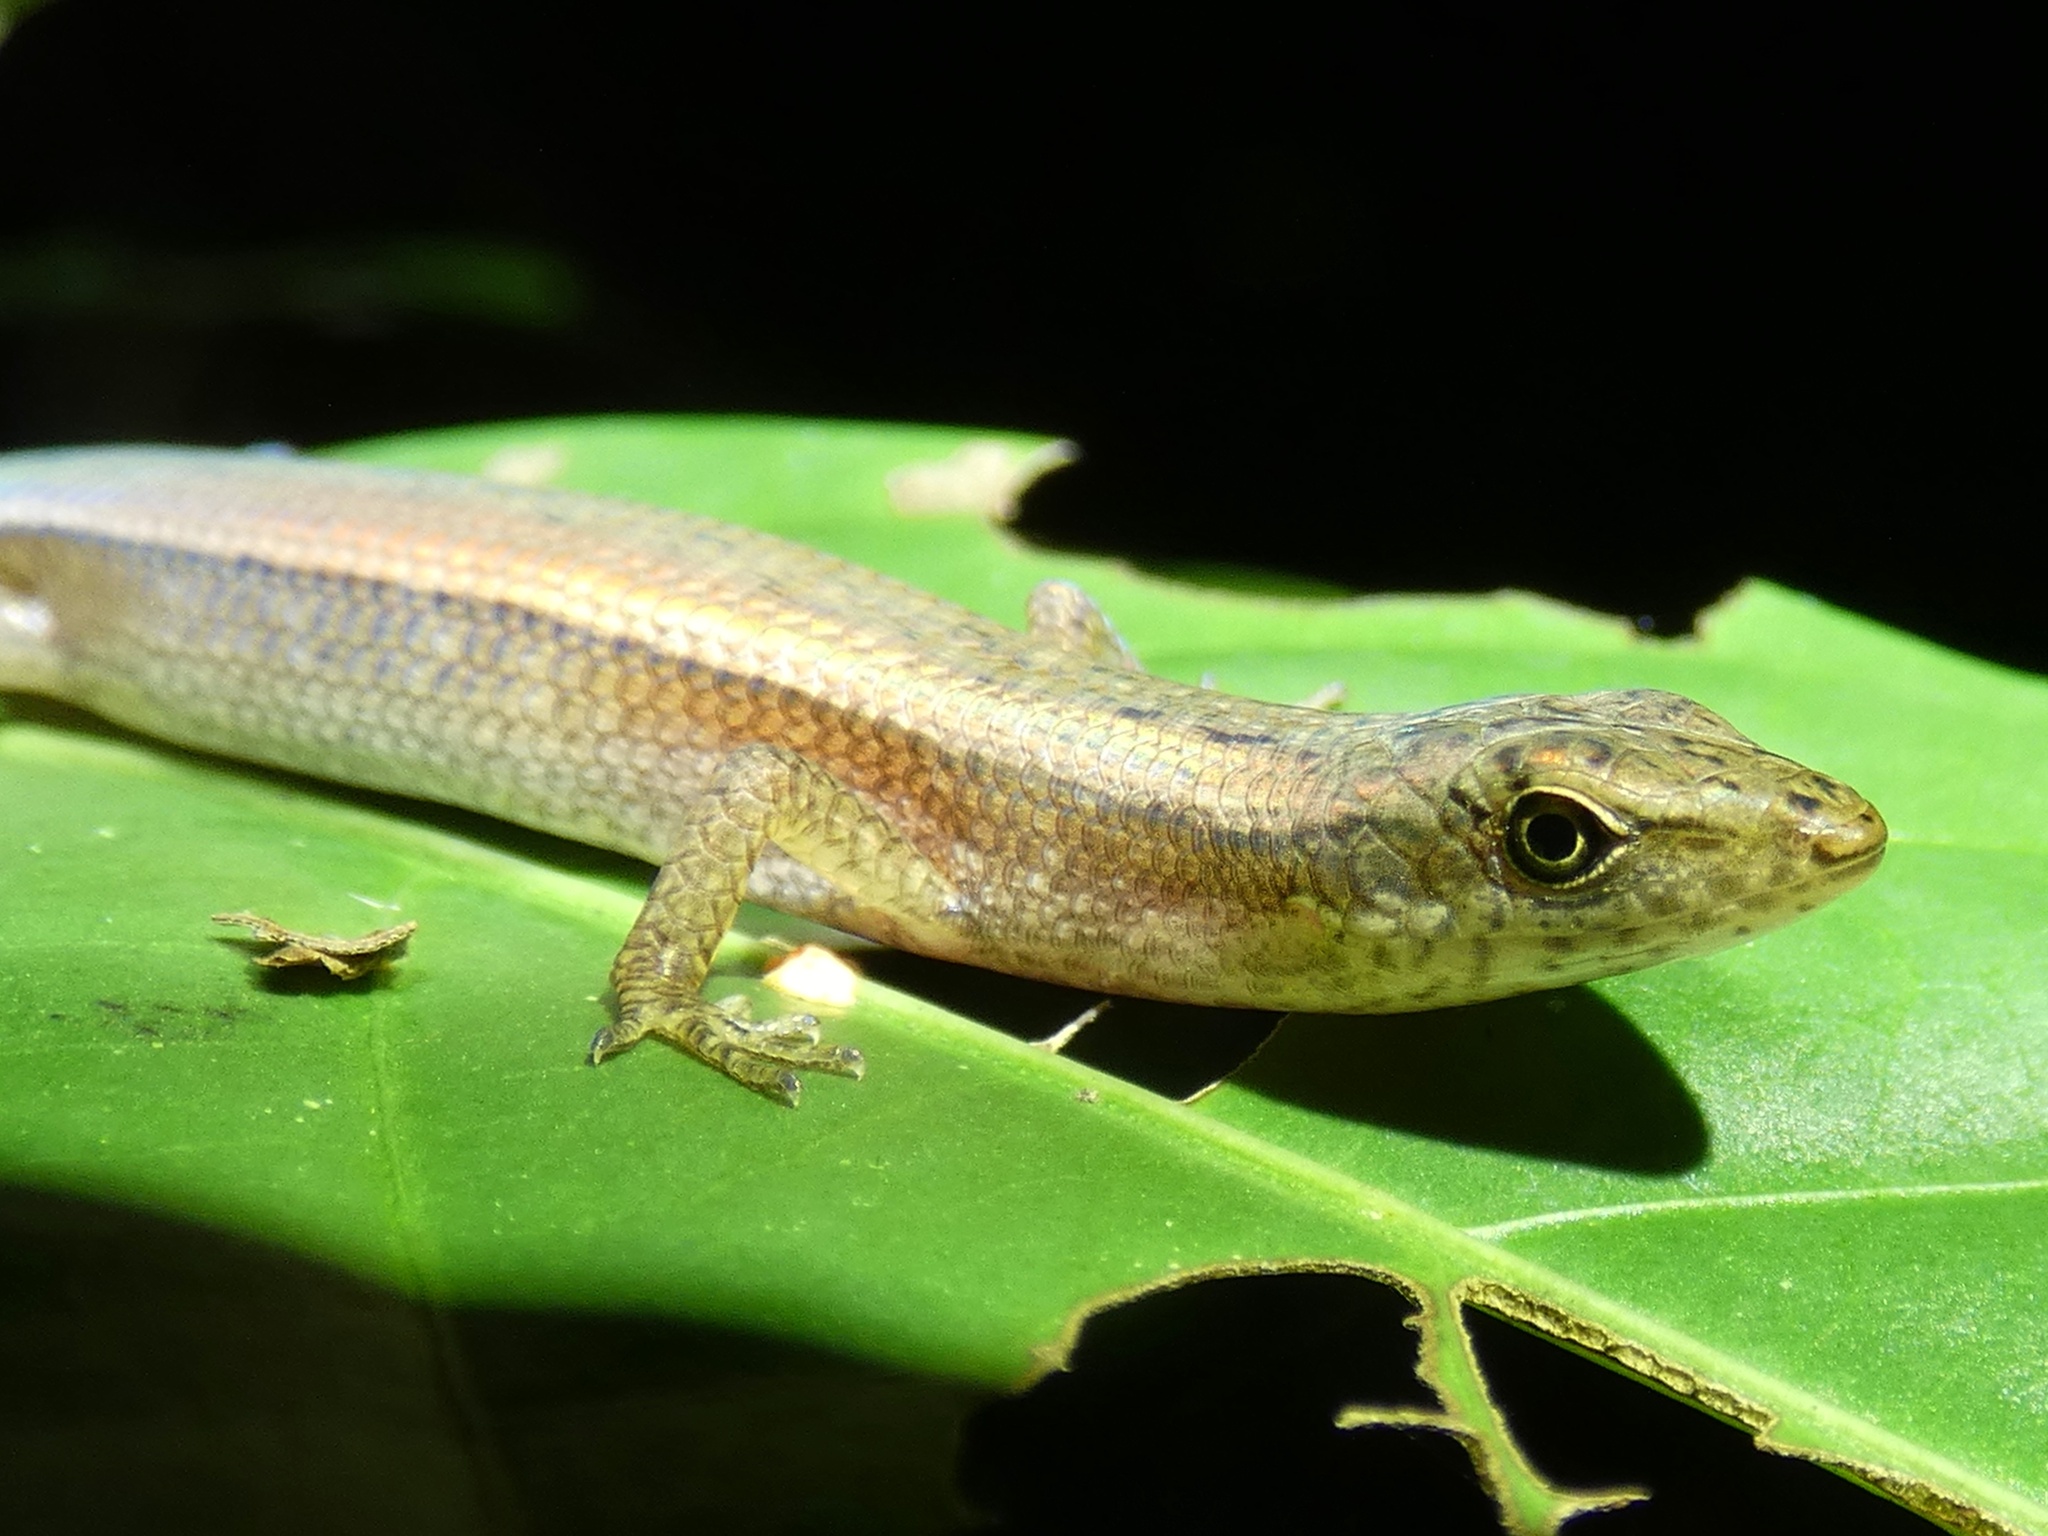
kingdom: Animalia
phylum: Chordata
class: Squamata
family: Scincidae
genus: Saproscincus
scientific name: Saproscincus lewisi
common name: Northern wet tropics shadeskink
